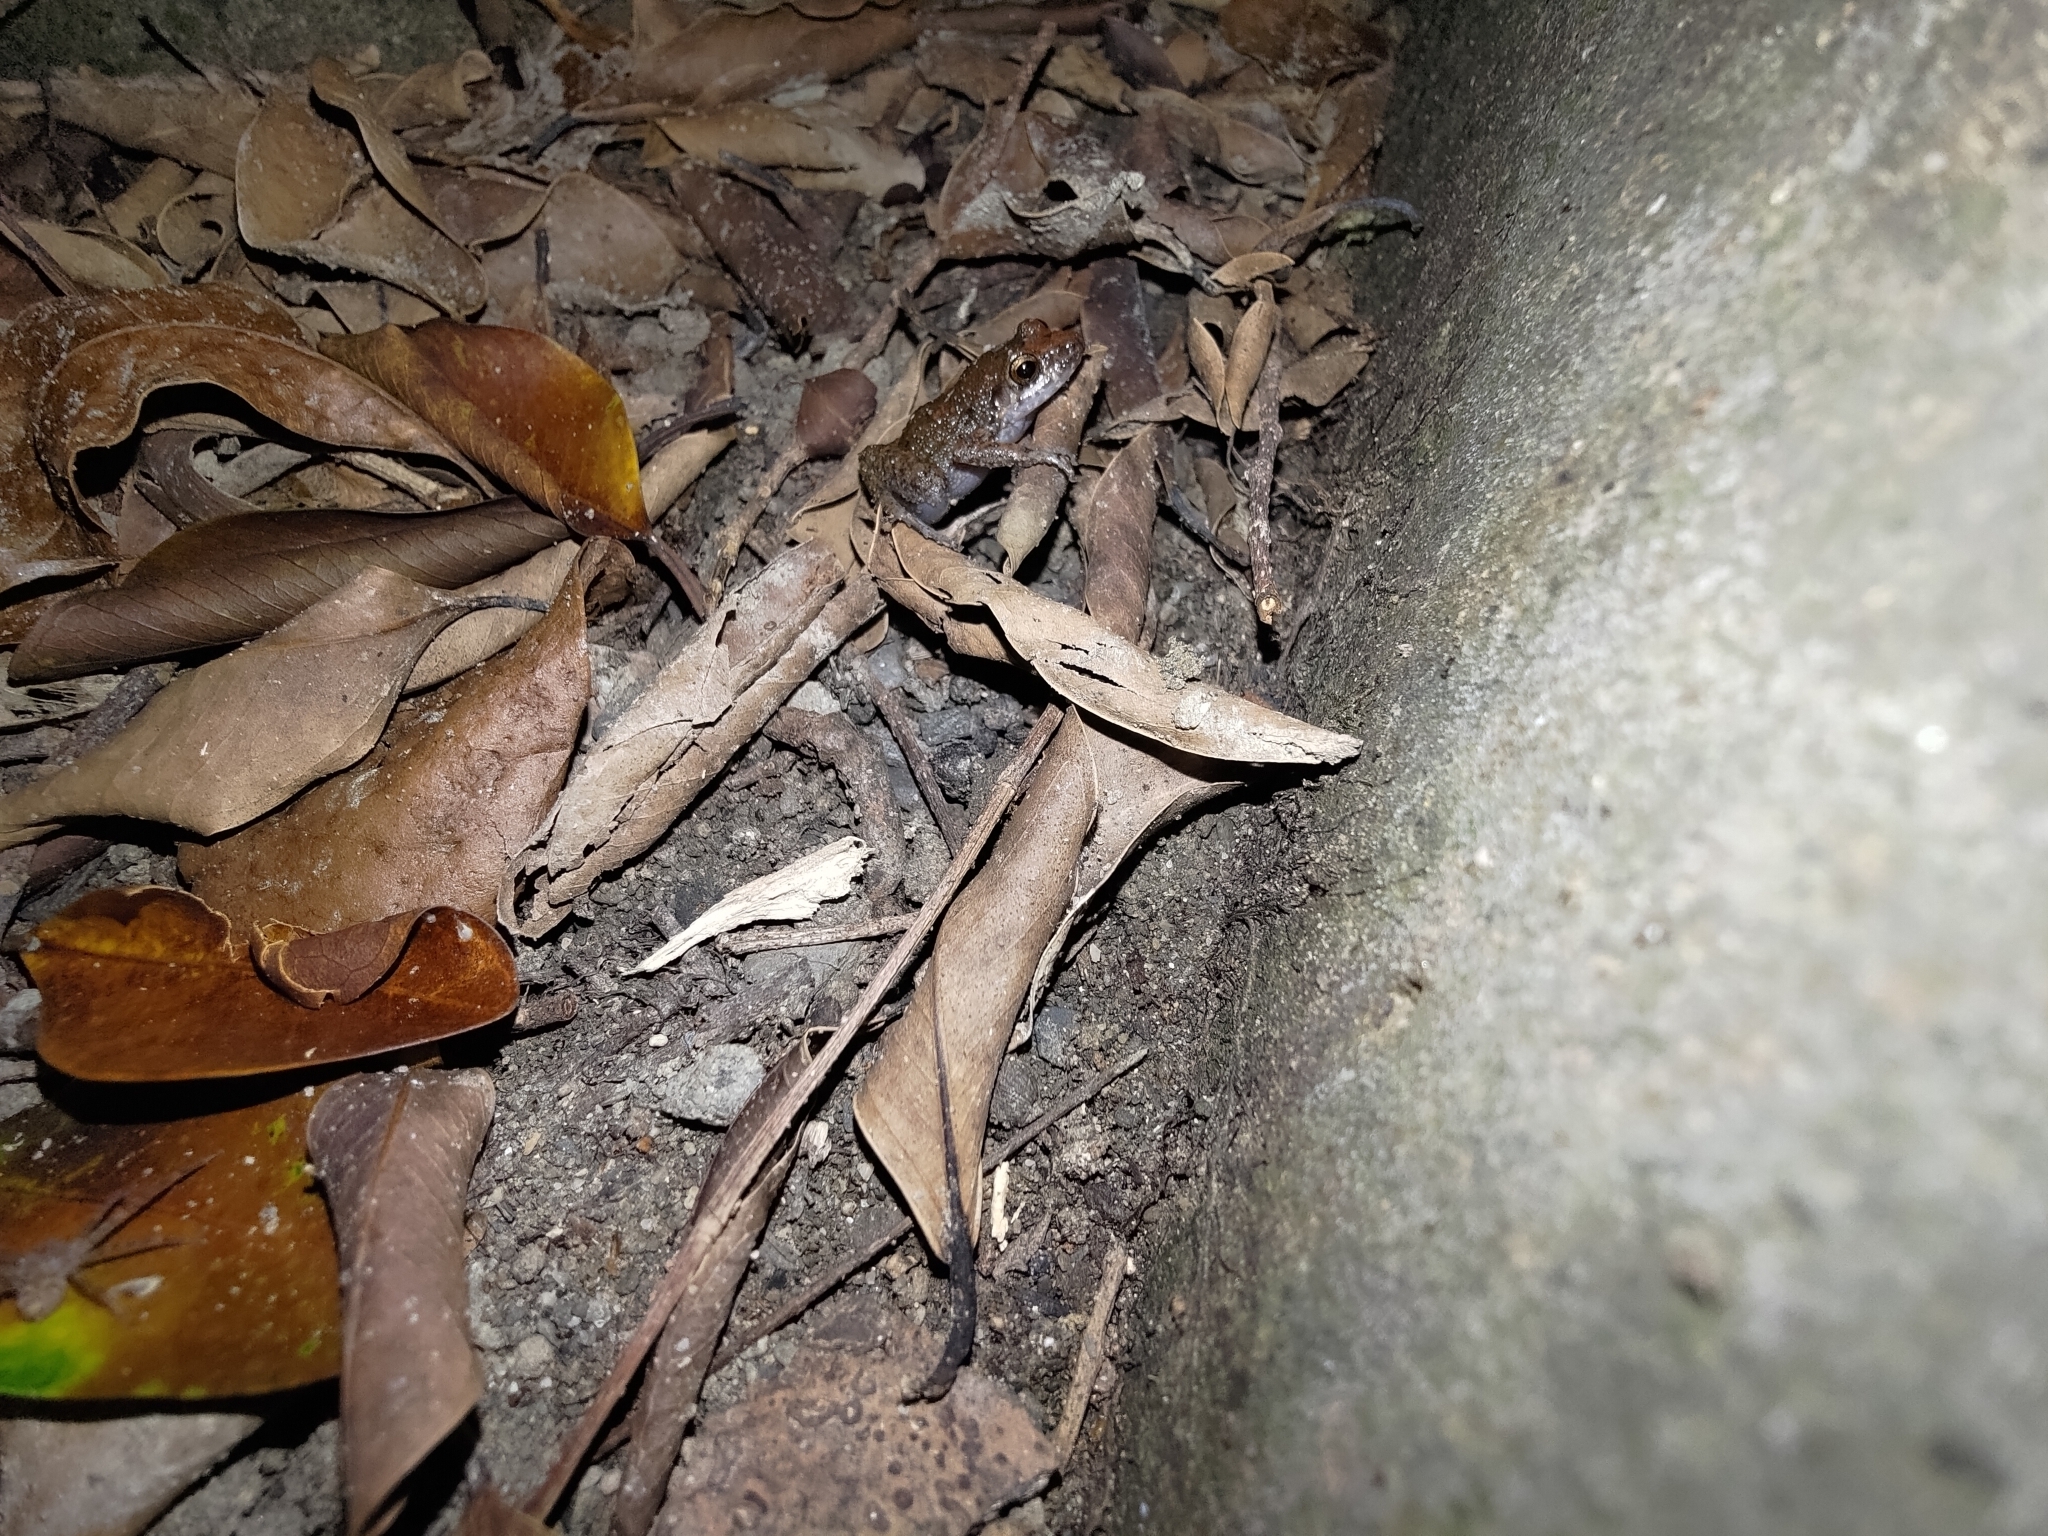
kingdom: Animalia
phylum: Chordata
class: Amphibia
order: Anura
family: Eleutherodactylidae
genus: Eleutherodactylus
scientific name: Eleutherodactylus planirostris
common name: Greenhouse frog
